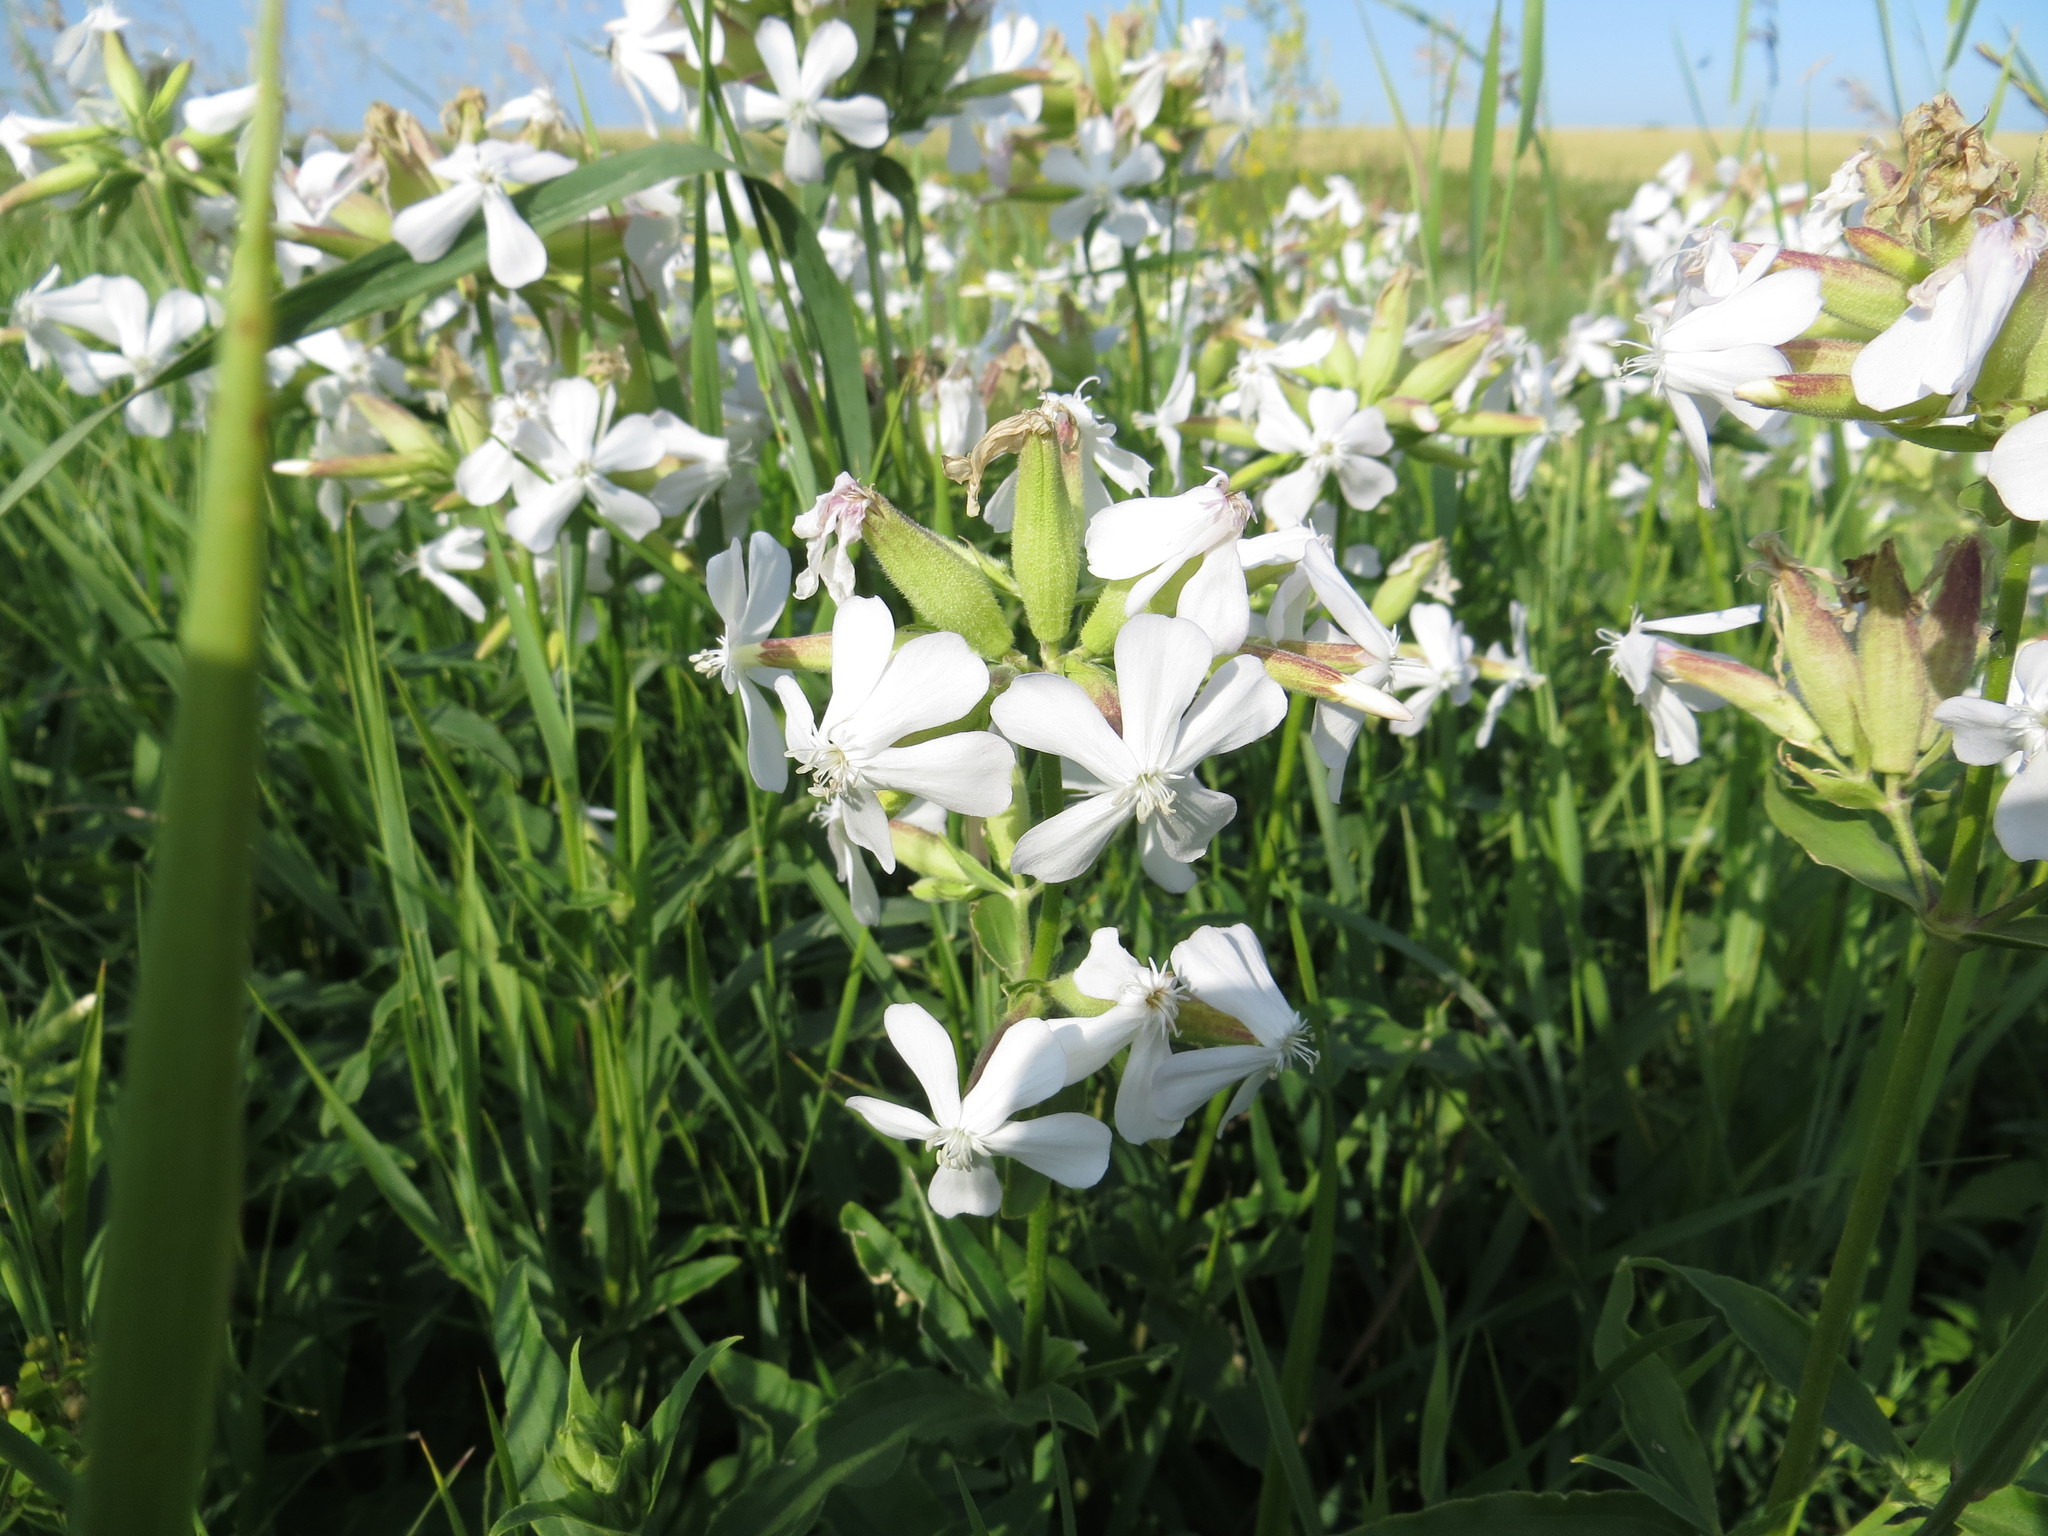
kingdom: Plantae
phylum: Tracheophyta
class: Magnoliopsida
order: Caryophyllales
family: Caryophyllaceae
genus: Saponaria
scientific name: Saponaria officinalis
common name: Soapwort
